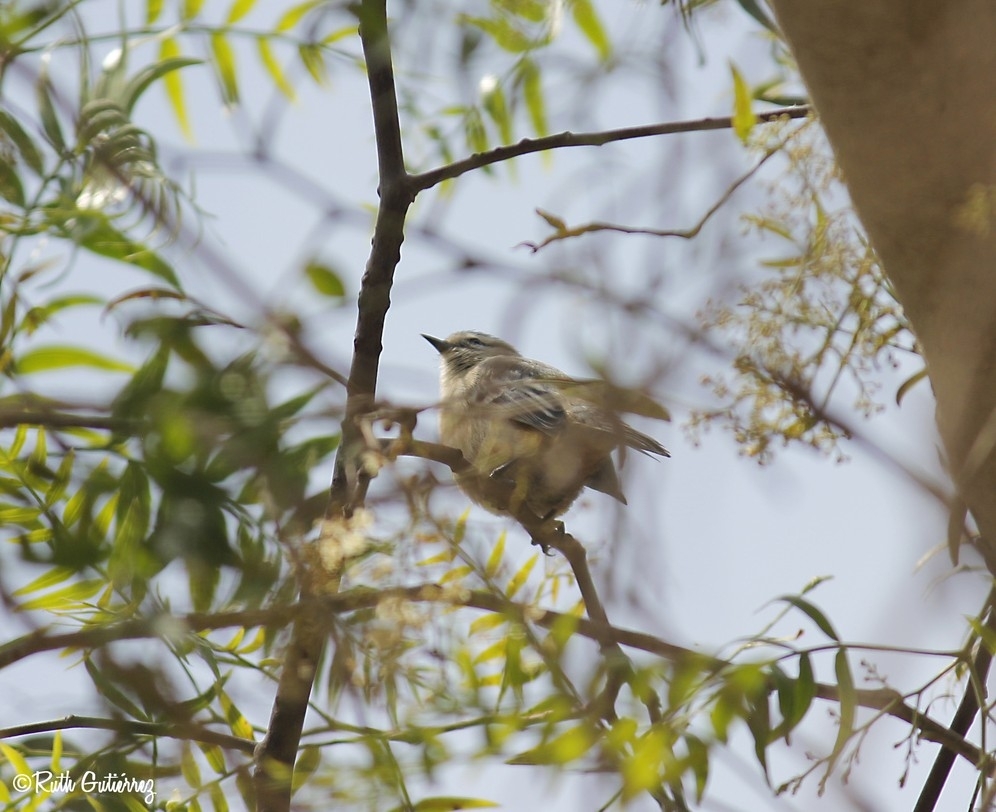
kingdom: Animalia
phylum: Chordata
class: Aves
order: Passeriformes
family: Thraupidae
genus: Conirostrum
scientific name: Conirostrum cinereum
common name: Cinereous conebill
